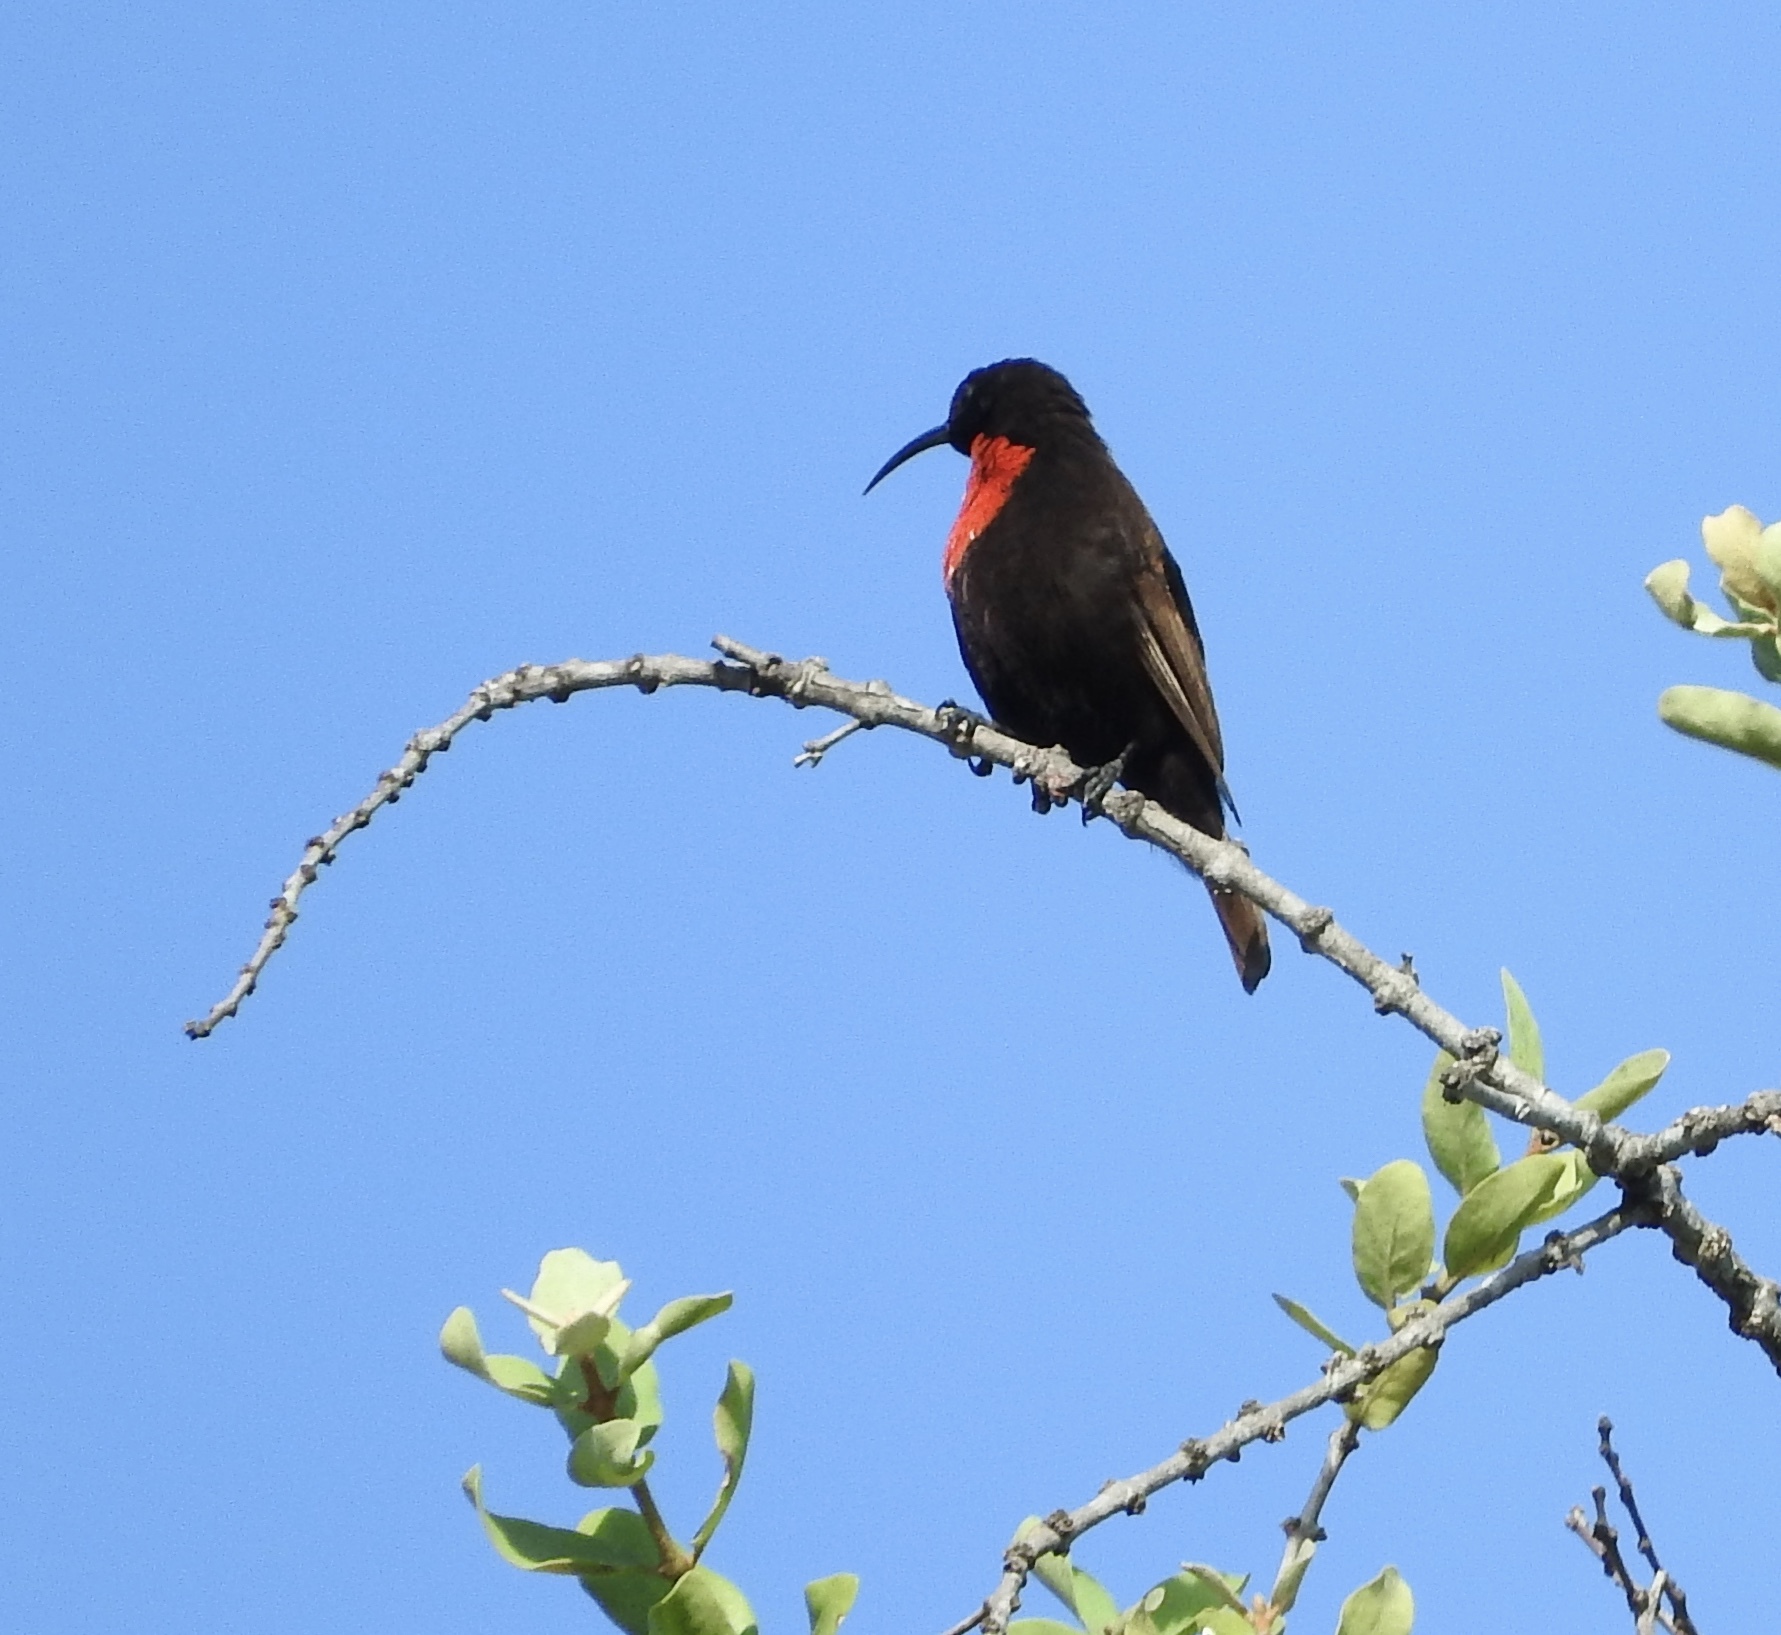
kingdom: Animalia
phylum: Chordata
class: Aves
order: Passeriformes
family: Nectariniidae
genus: Chalcomitra
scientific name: Chalcomitra senegalensis
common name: Scarlet-chested sunbird
